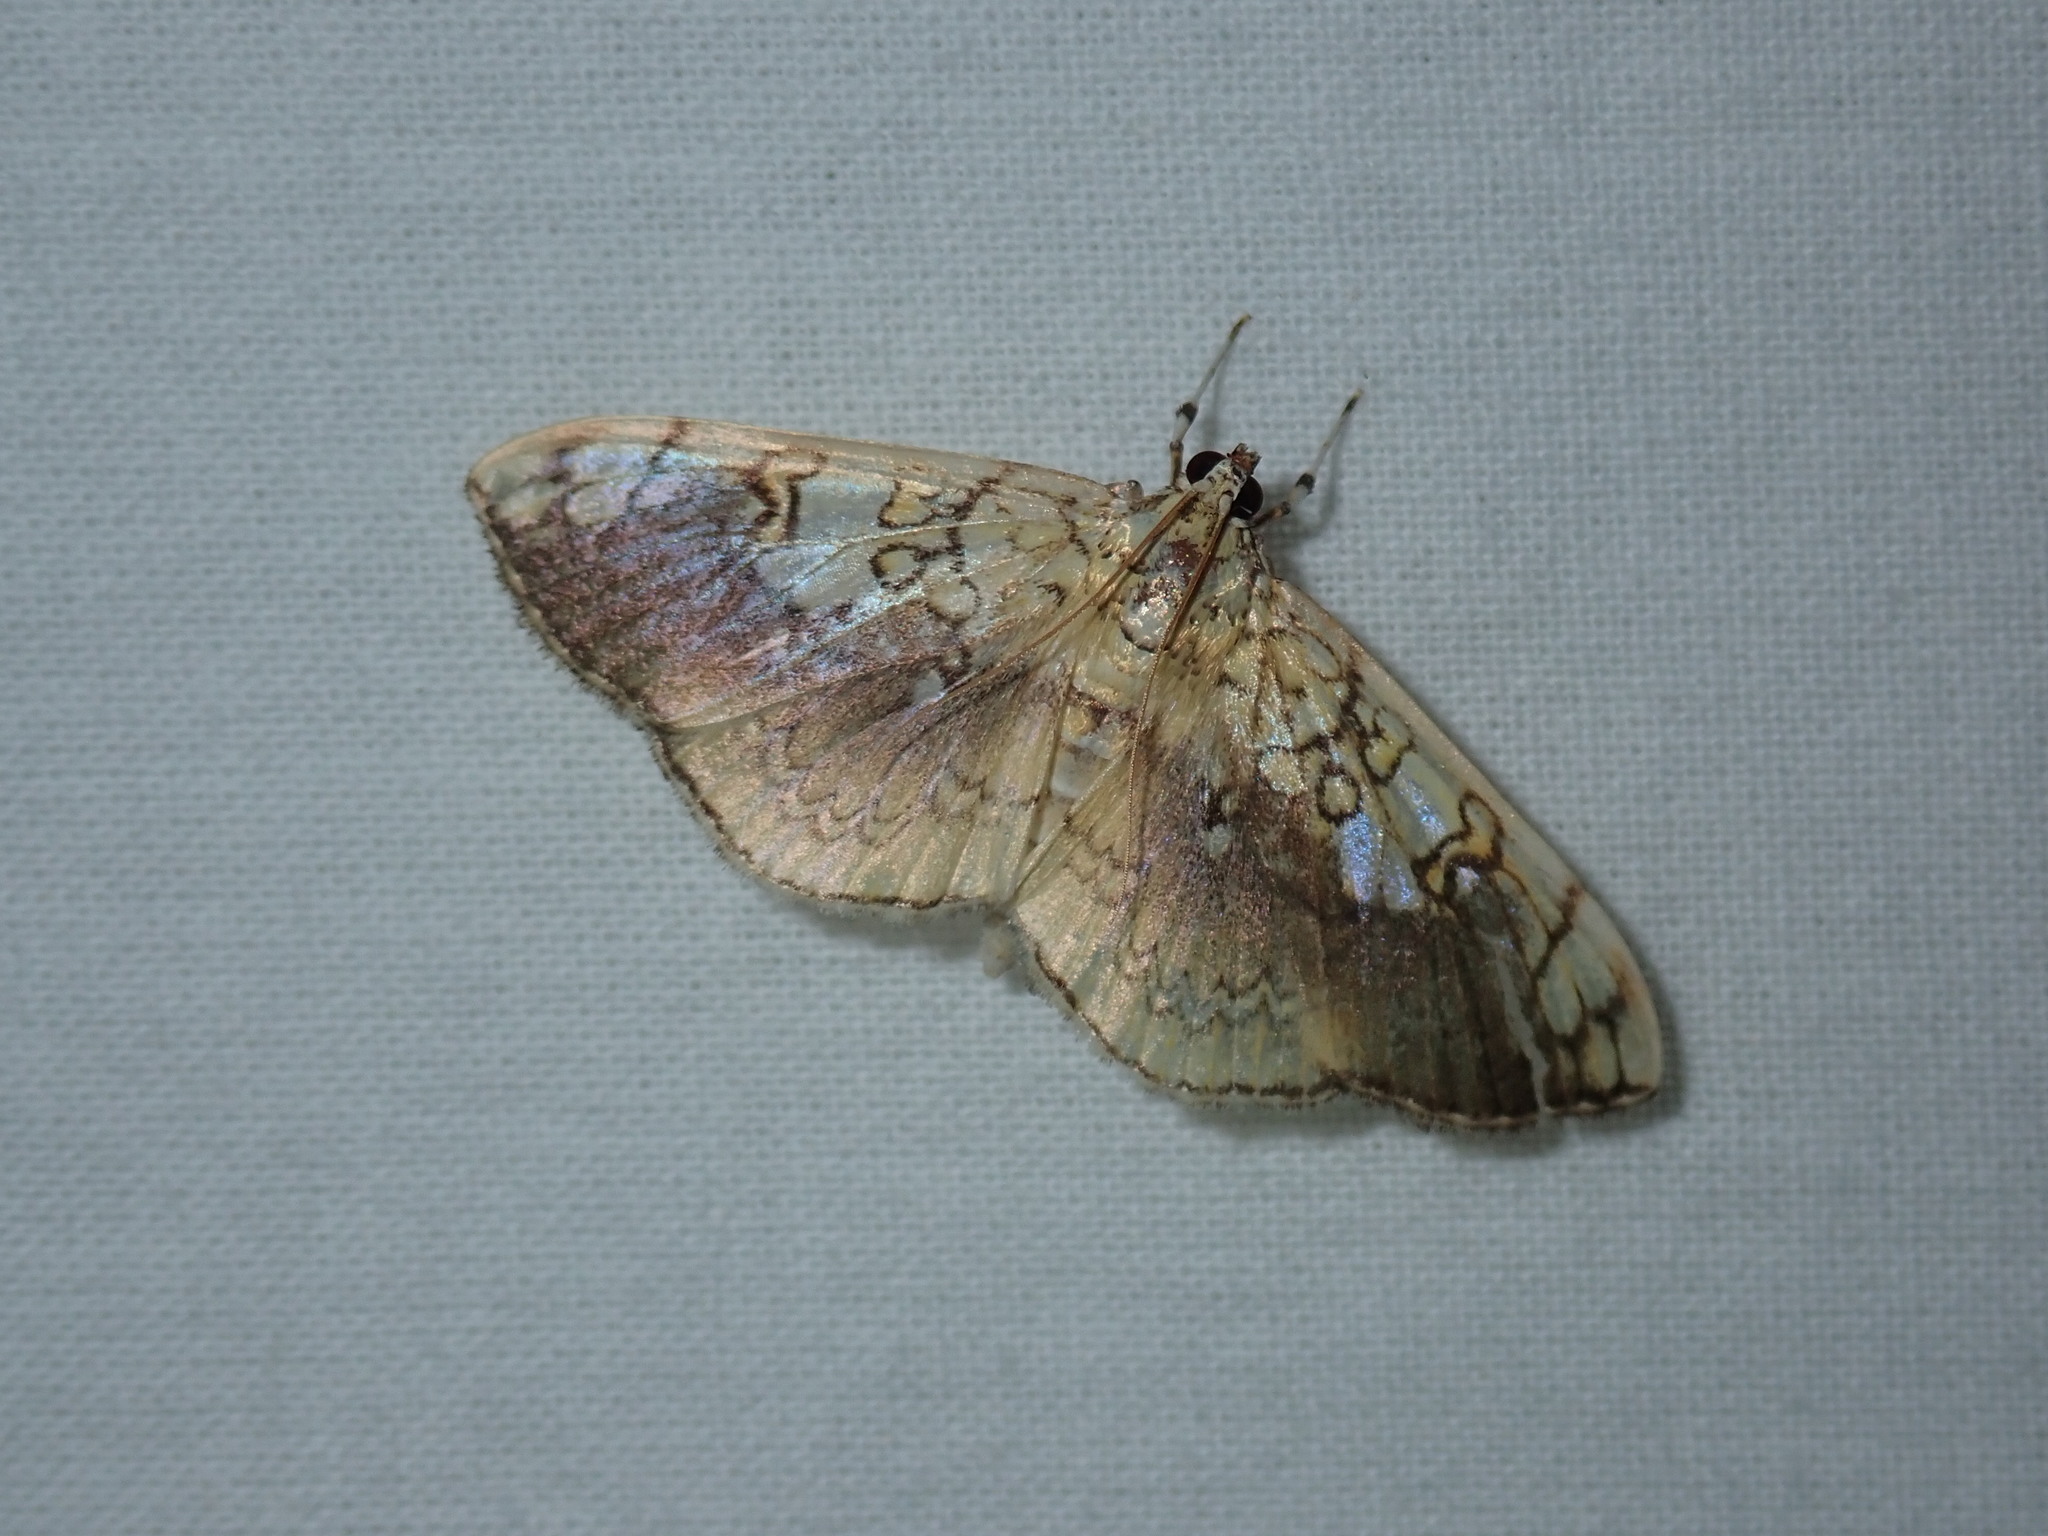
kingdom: Animalia
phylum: Arthropoda
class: Insecta
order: Lepidoptera
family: Crambidae
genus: Pantographa
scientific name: Pantographa limata
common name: Basswood leafroller moth
